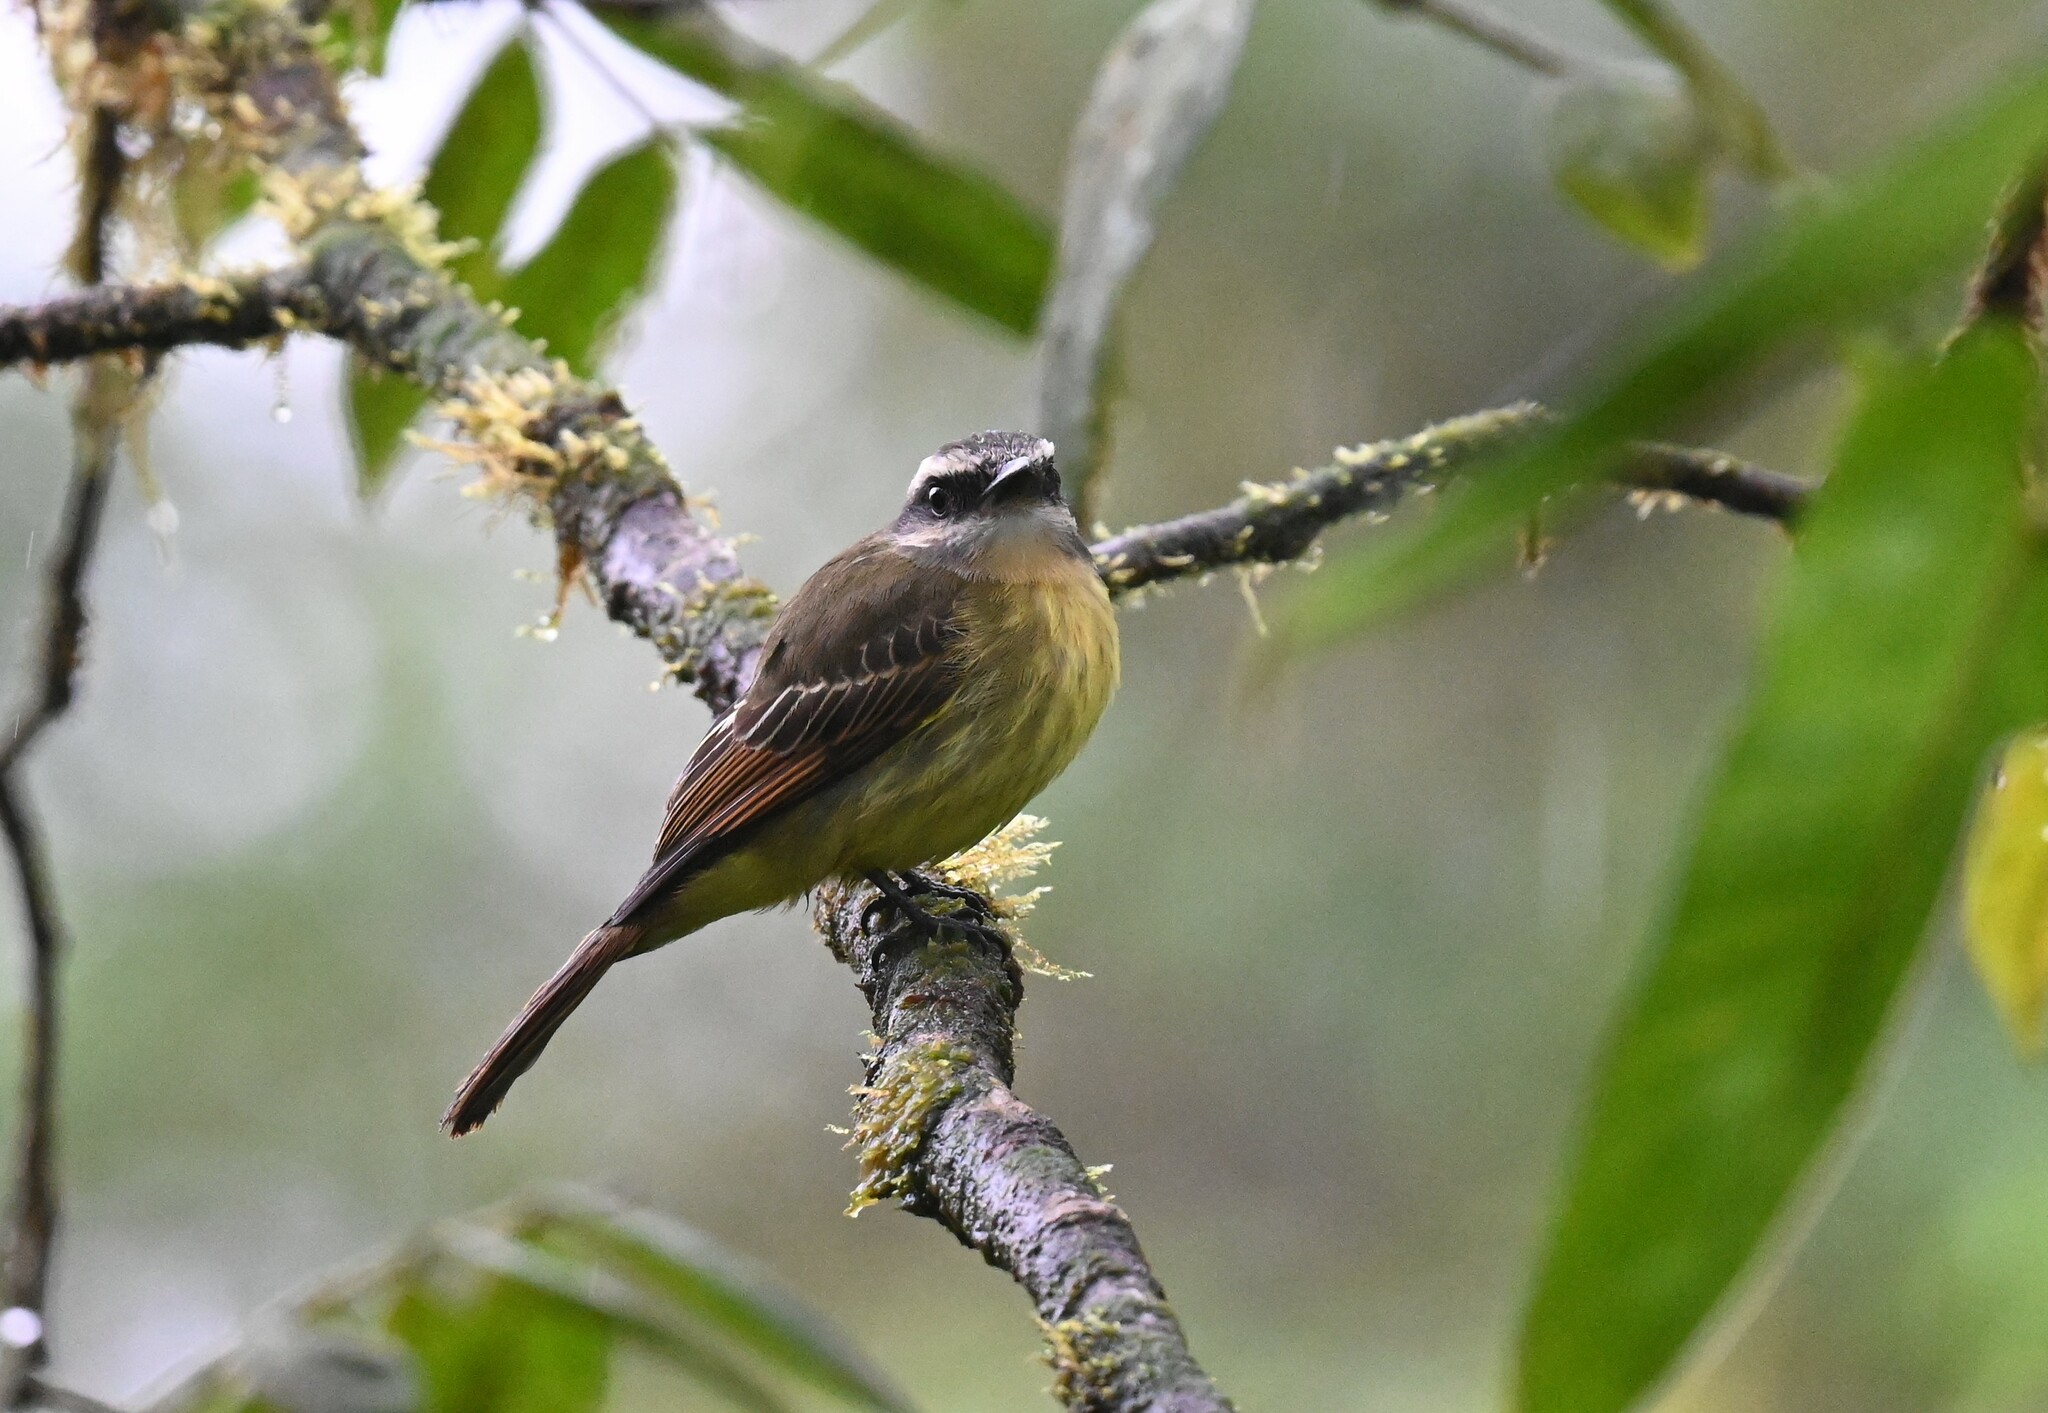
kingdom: Animalia
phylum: Chordata
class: Aves
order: Passeriformes
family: Tyrannidae
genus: Myiodynastes
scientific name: Myiodynastes hemichrysus
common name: Golden-bellied flycatcher
